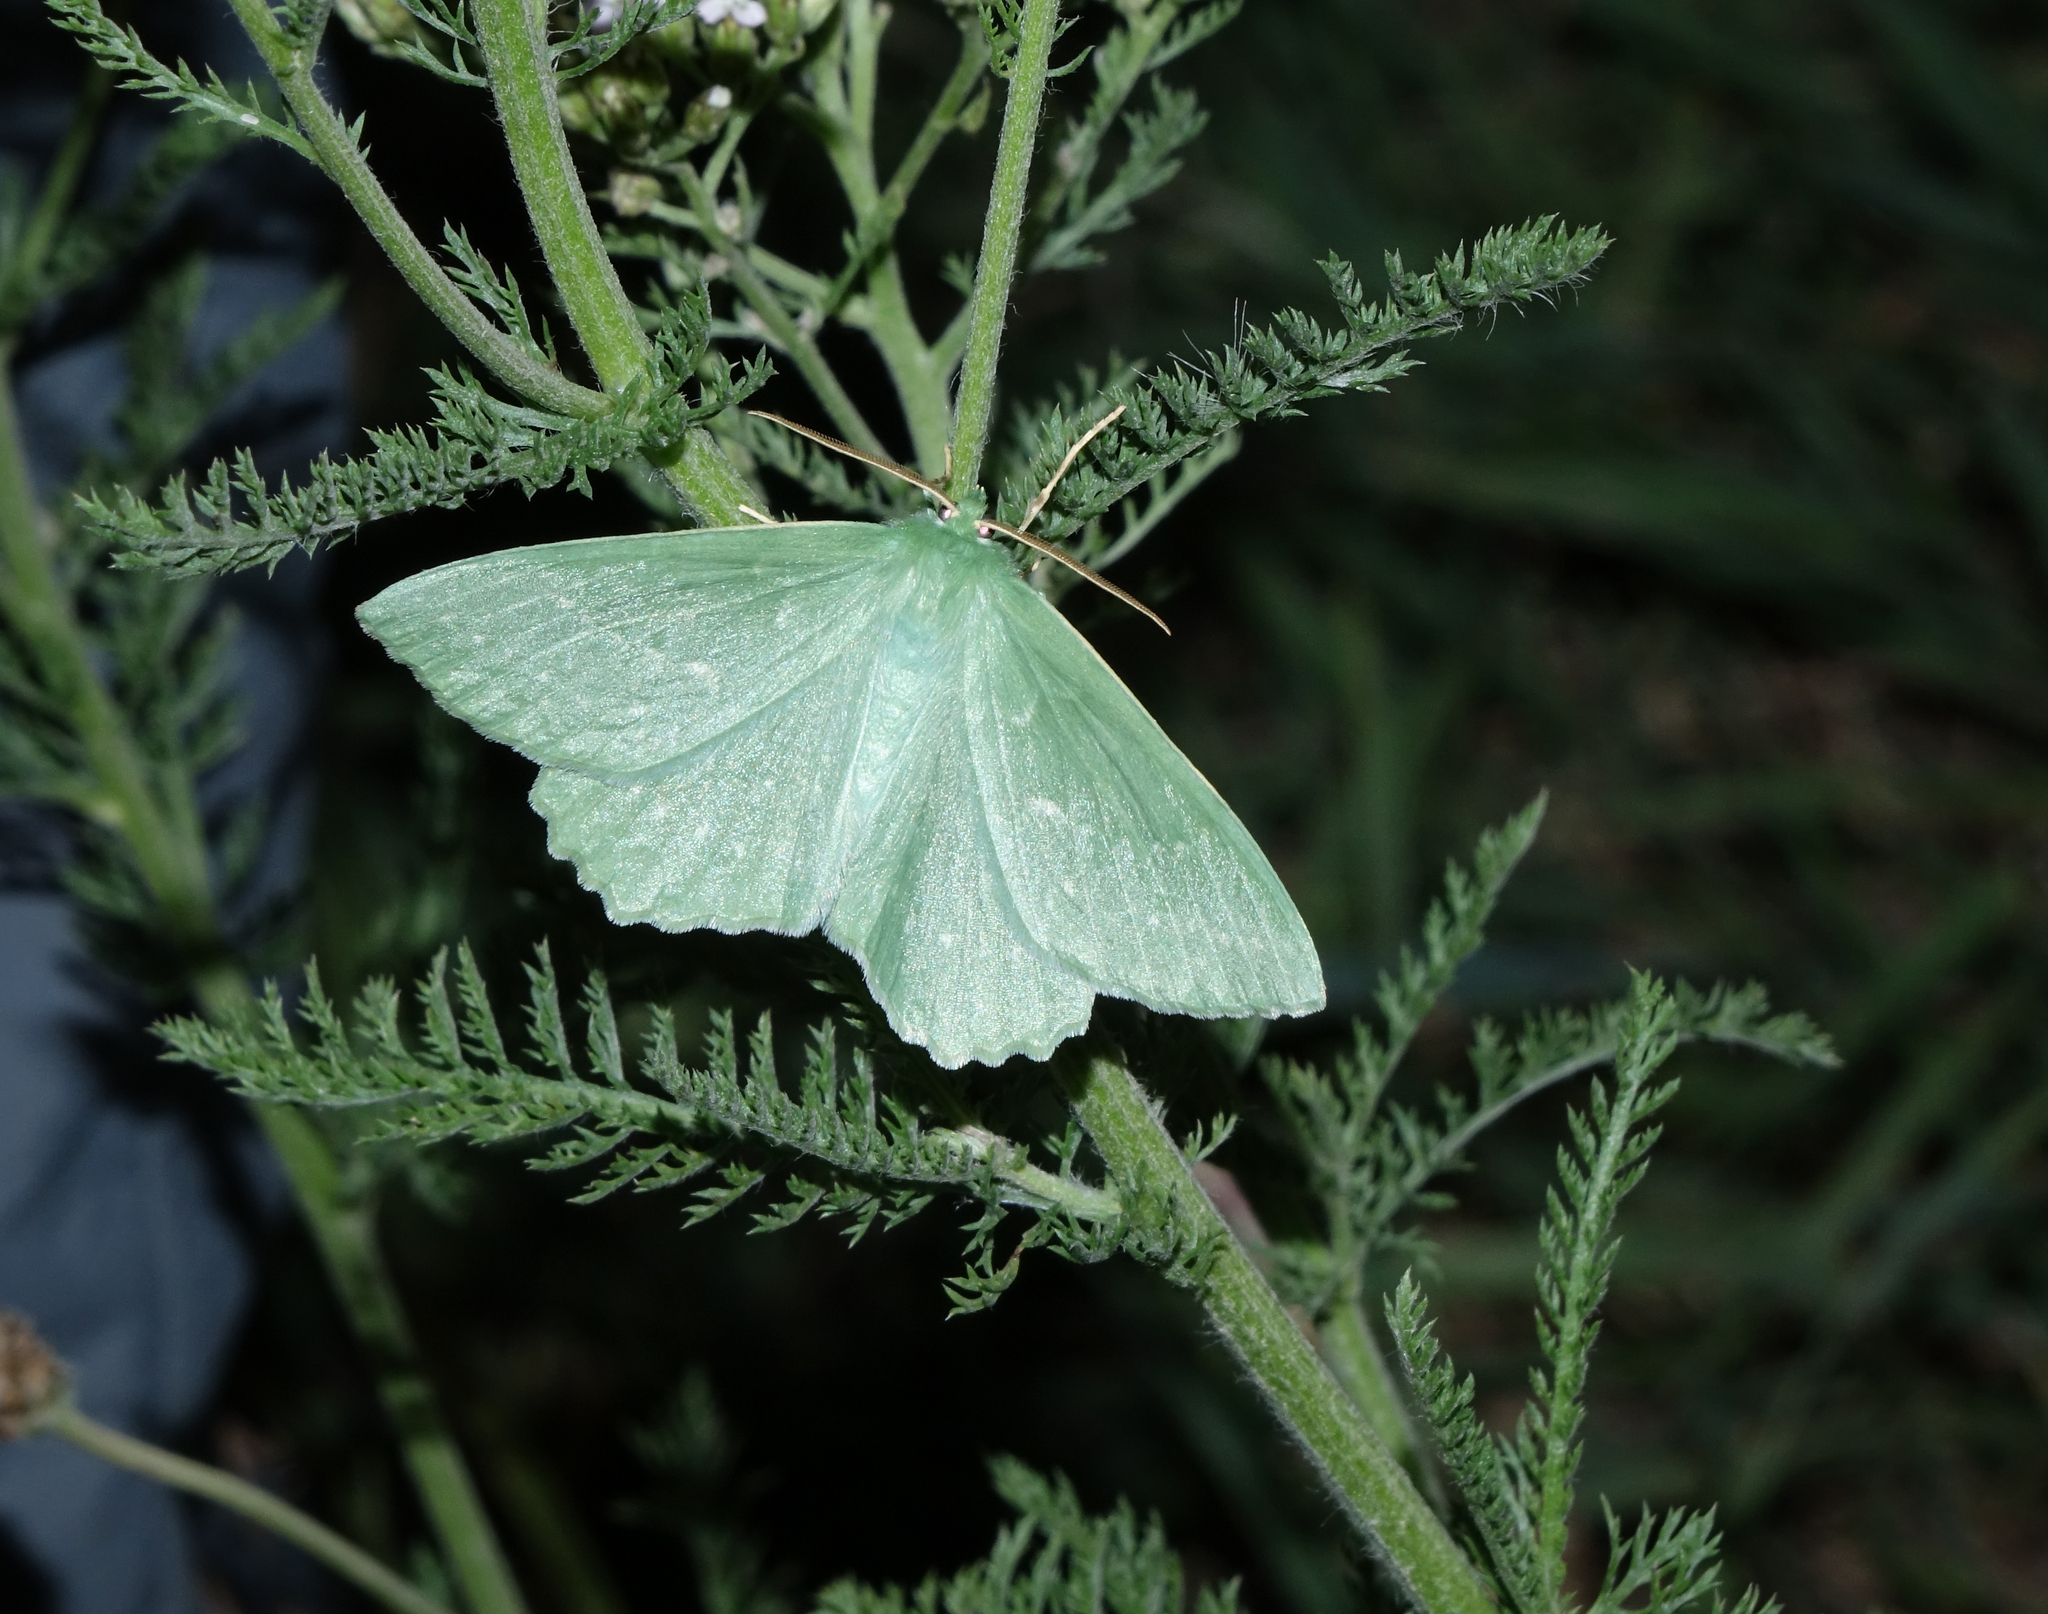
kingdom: Animalia
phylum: Arthropoda
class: Insecta
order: Lepidoptera
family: Geometridae
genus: Geometra
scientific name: Geometra papilionaria
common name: Large emerald
